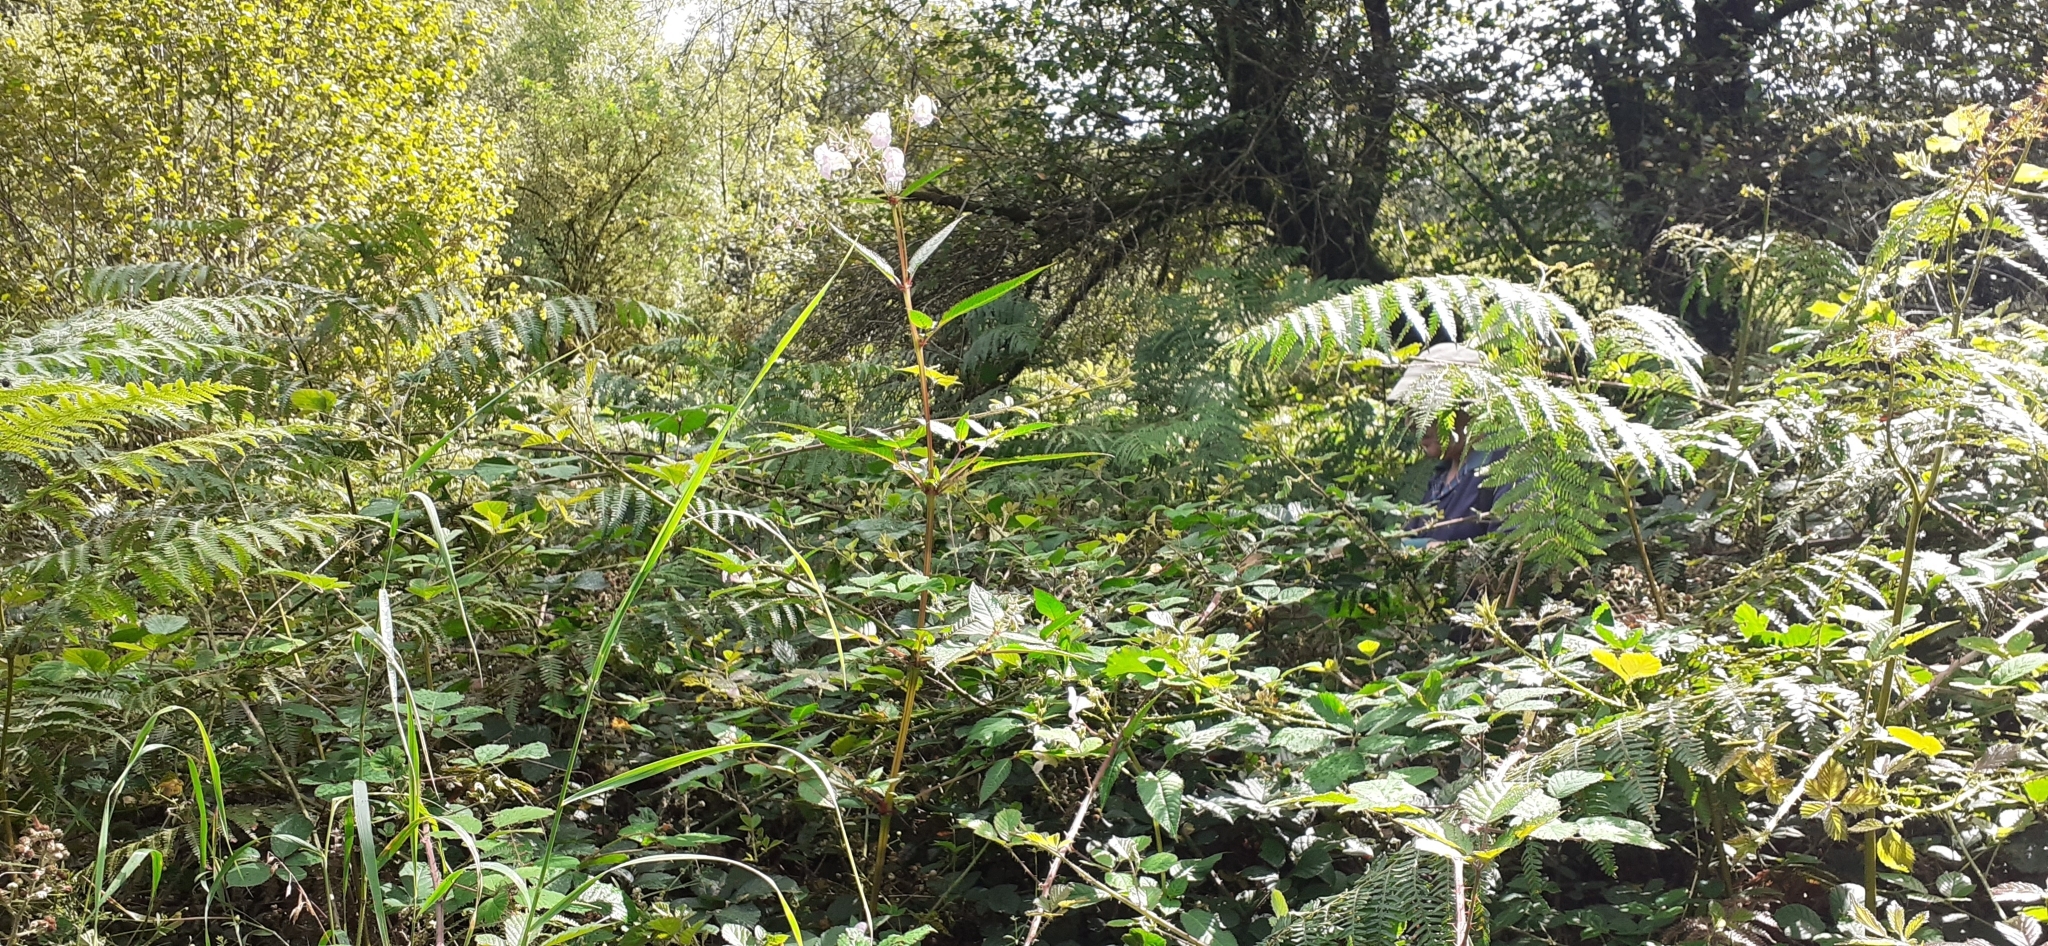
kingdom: Plantae
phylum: Tracheophyta
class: Magnoliopsida
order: Ericales
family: Balsaminaceae
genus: Impatiens
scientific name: Impatiens glandulifera
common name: Himalayan balsam
